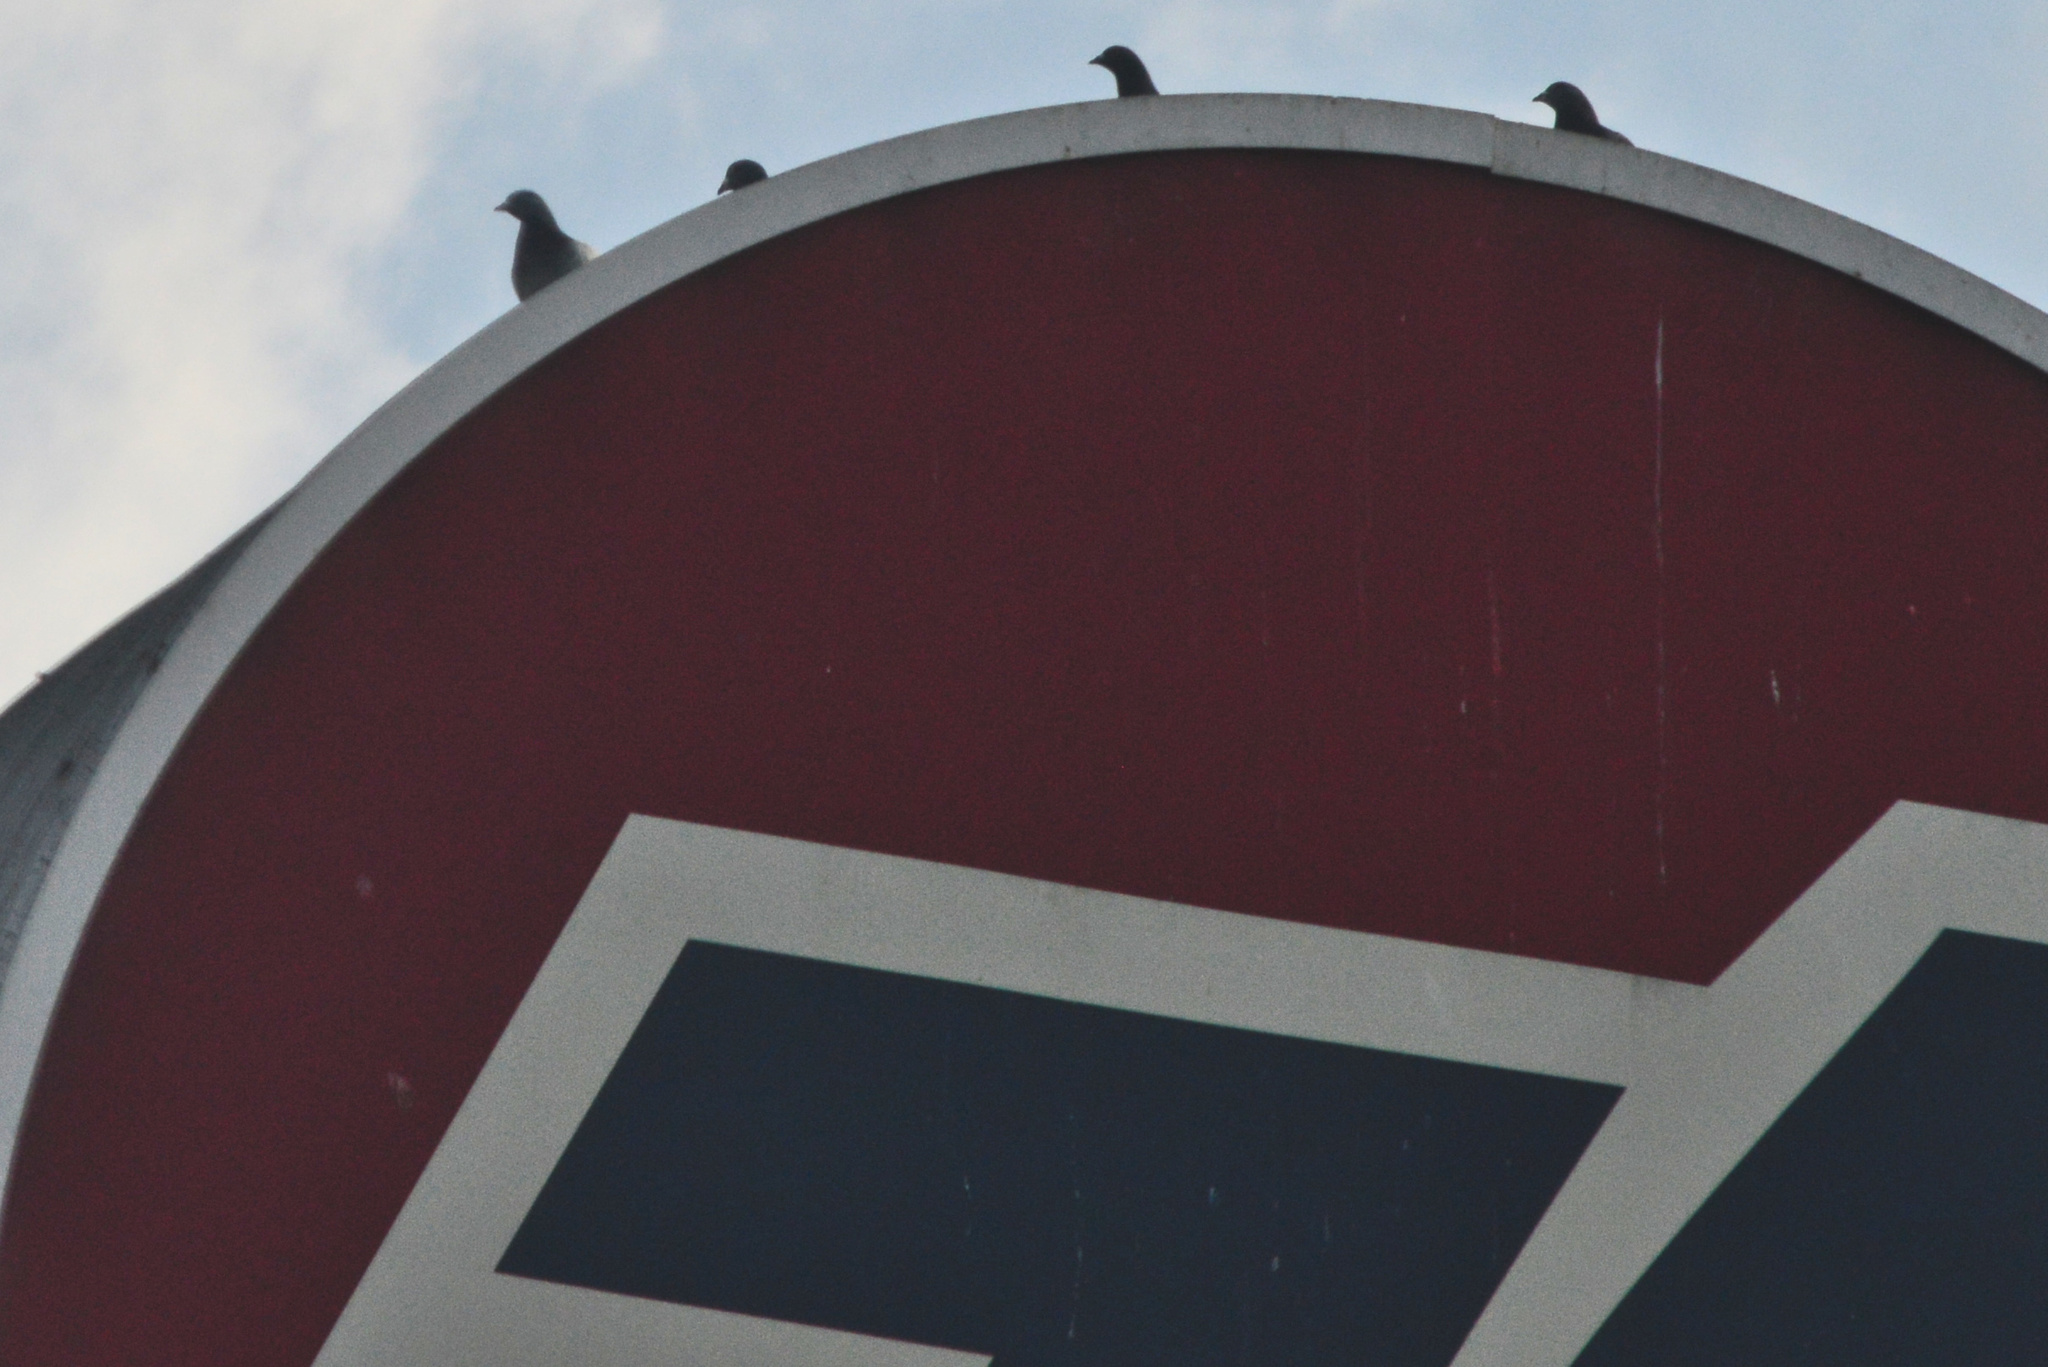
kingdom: Animalia
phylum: Chordata
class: Aves
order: Columbiformes
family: Columbidae
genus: Columba
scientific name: Columba livia
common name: Rock pigeon
